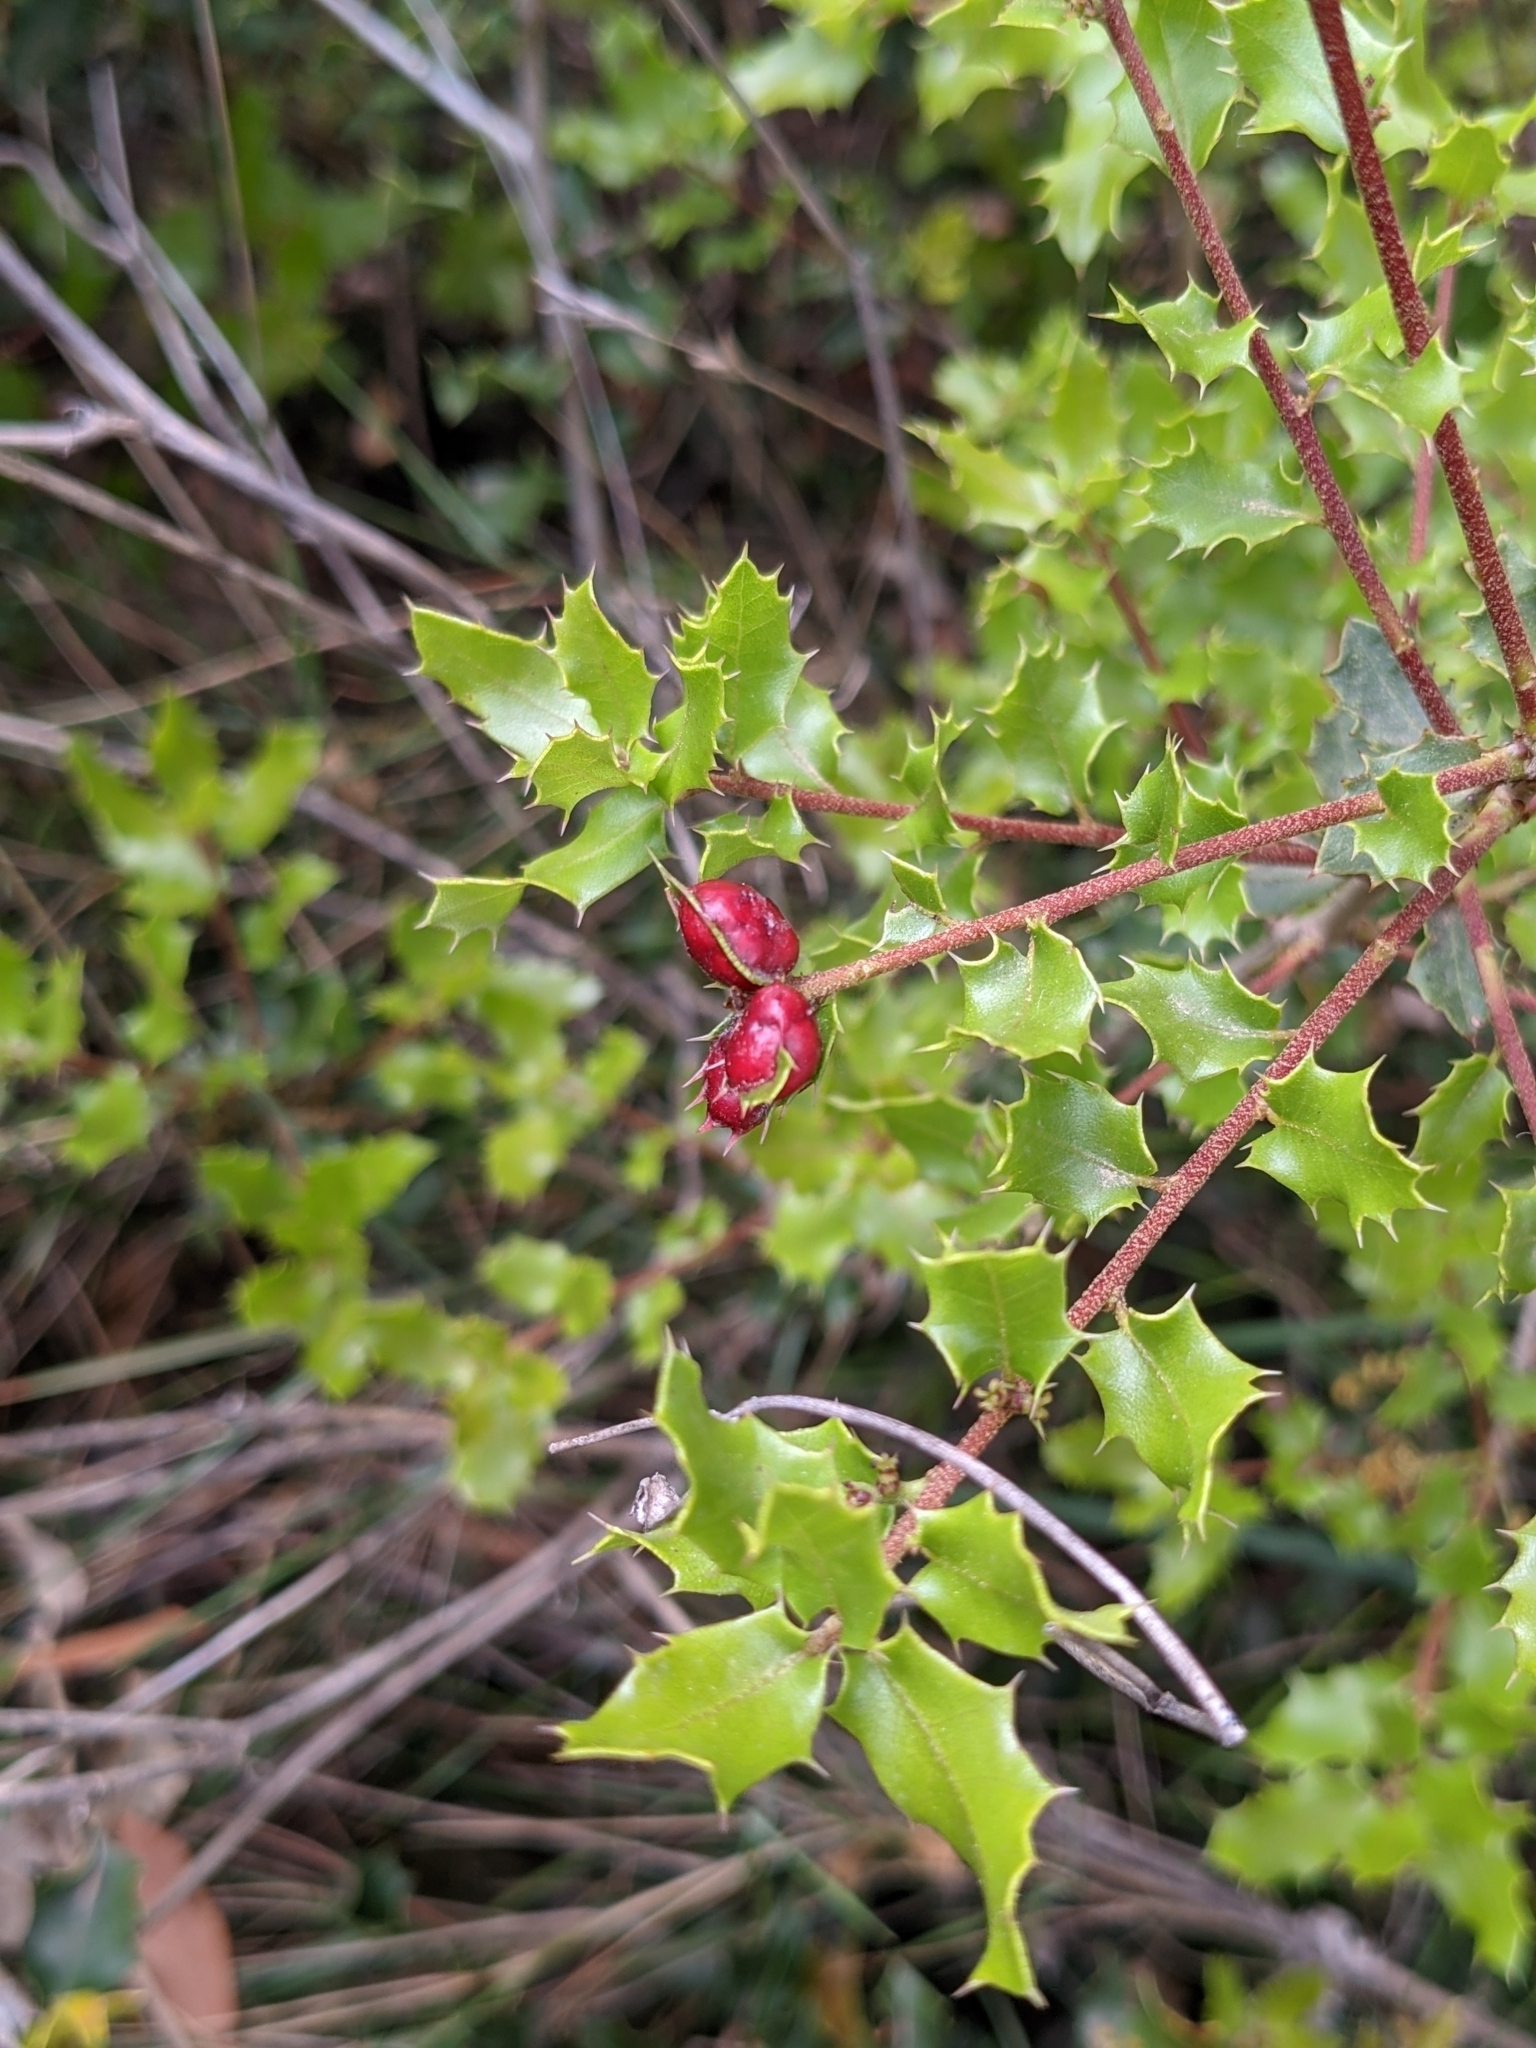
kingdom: Animalia
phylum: Arthropoda
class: Insecta
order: Hymenoptera
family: Cynipidae
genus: Plagiotrochus
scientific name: Plagiotrochus quercusilicis
